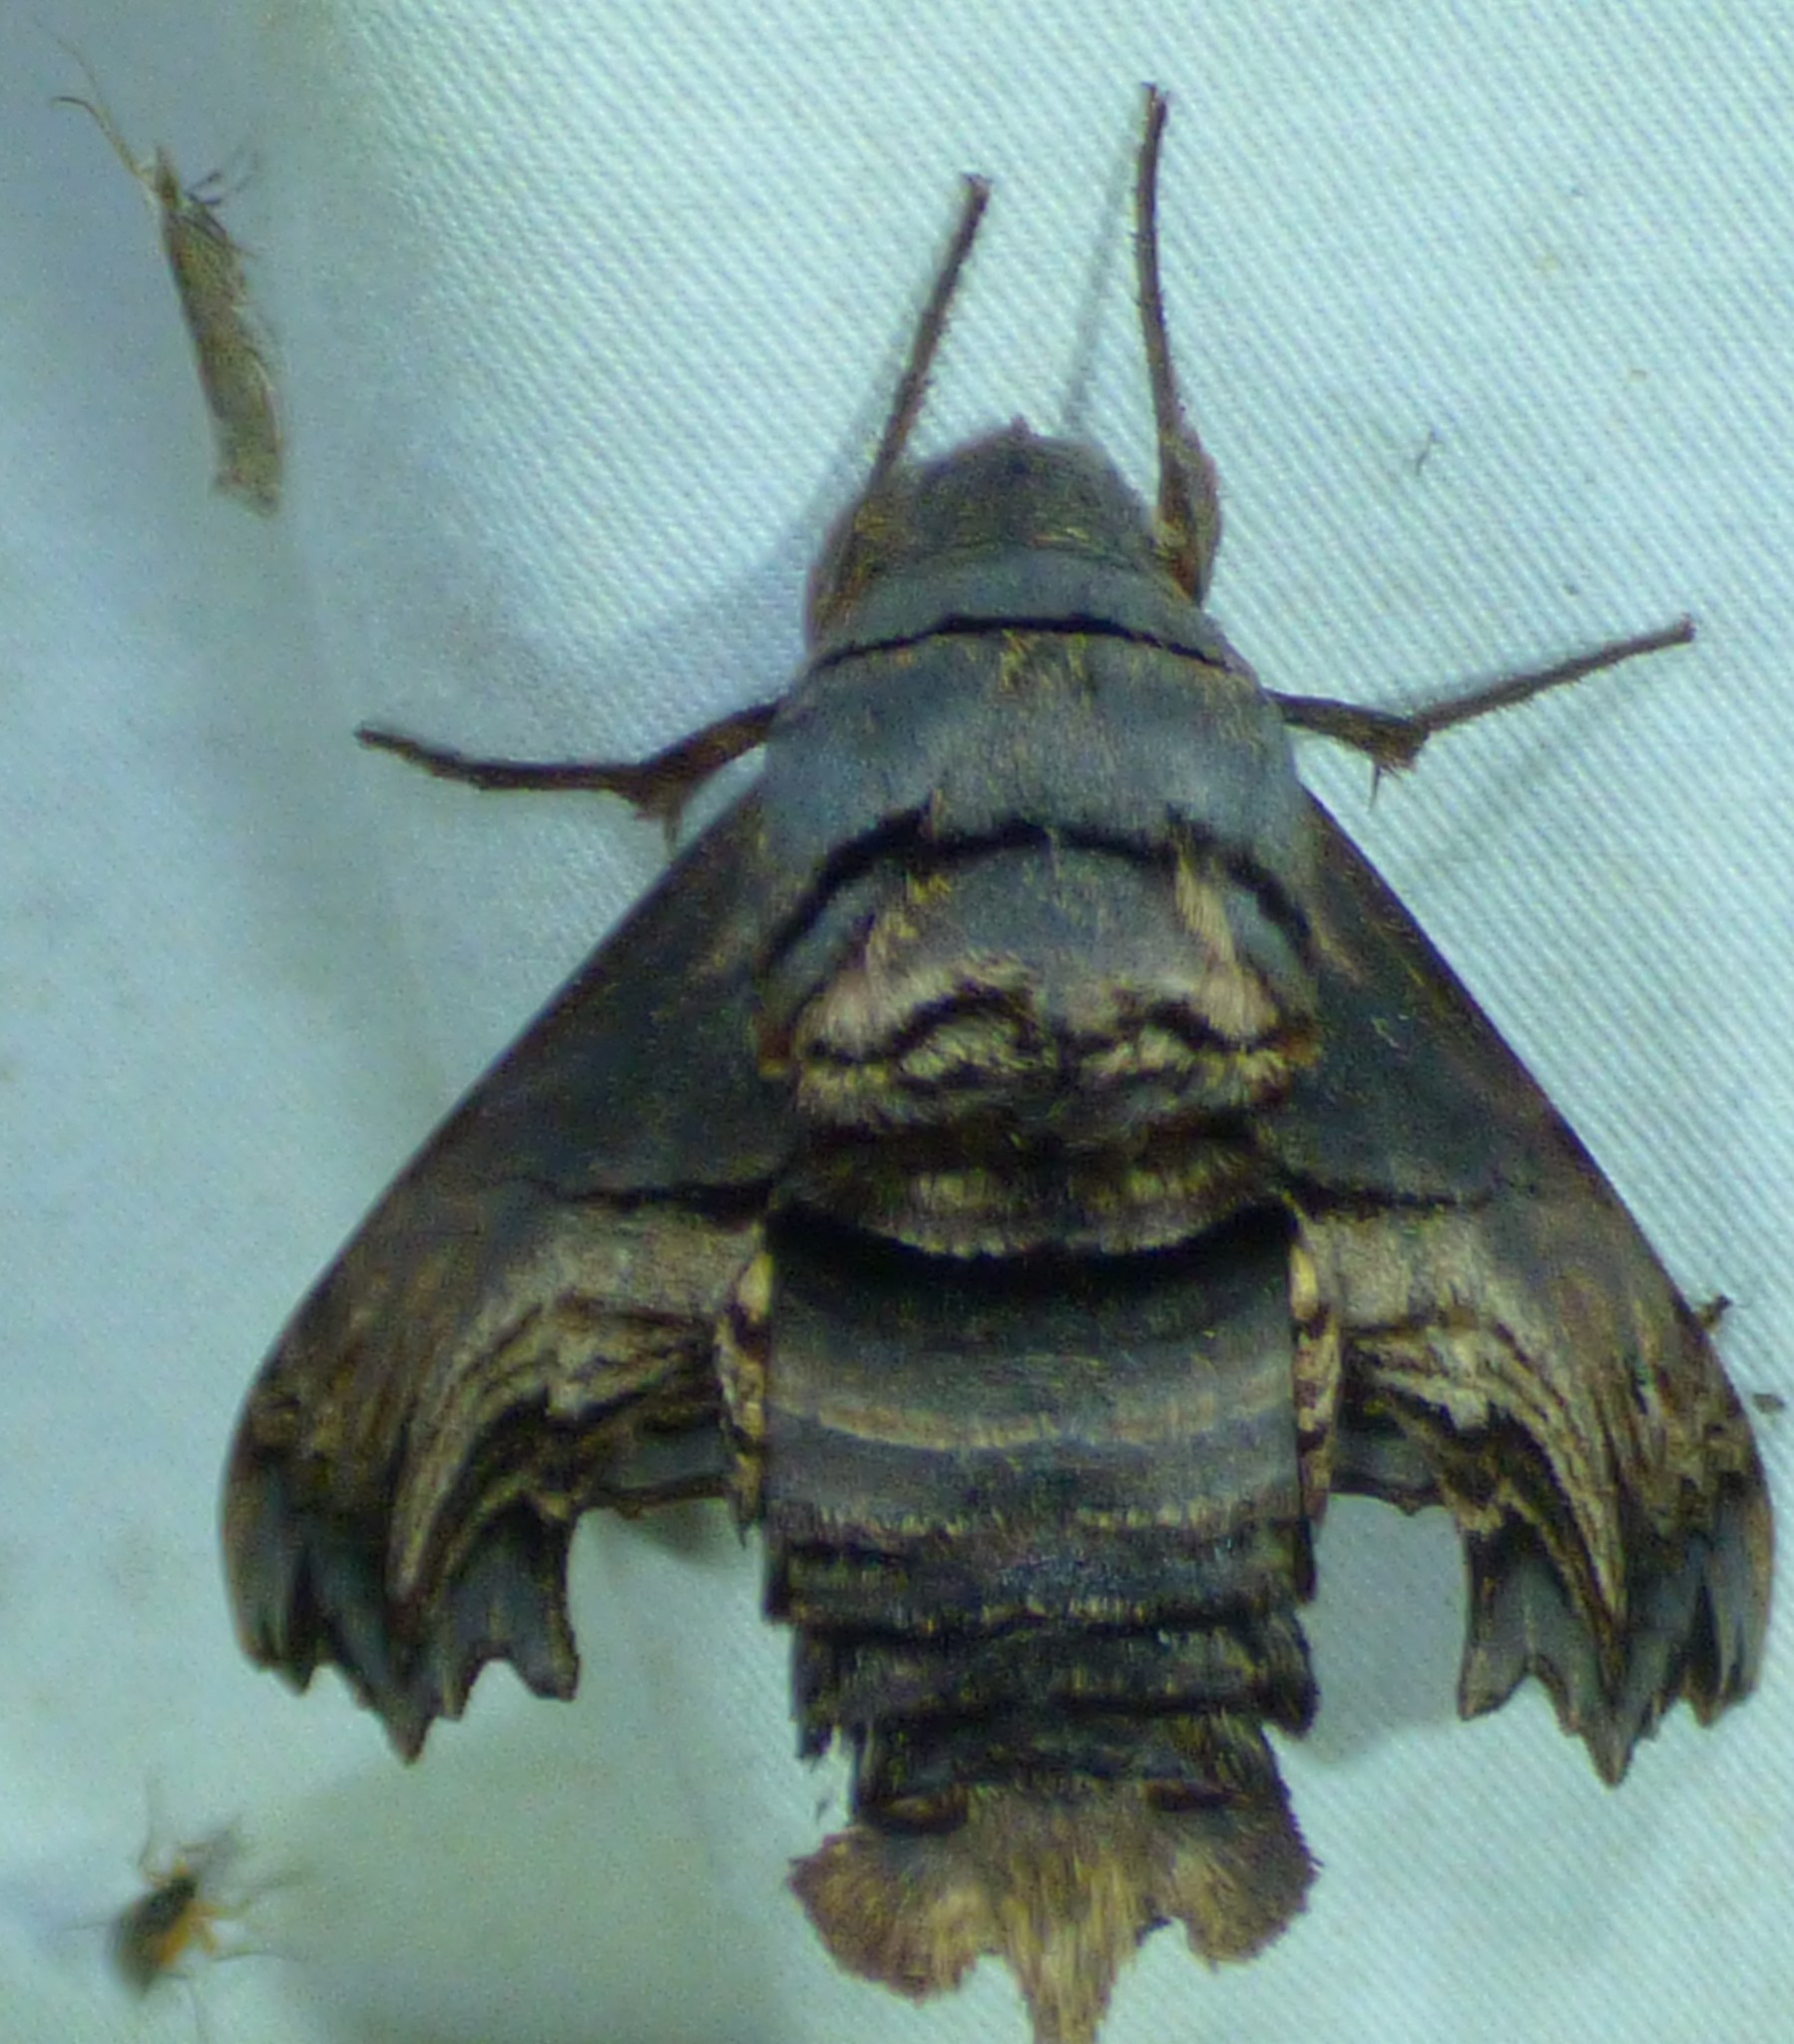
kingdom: Animalia
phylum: Arthropoda
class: Insecta
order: Lepidoptera
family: Sphingidae
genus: Sphecodina
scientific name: Sphecodina abbottii
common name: Abbott's sphinx
